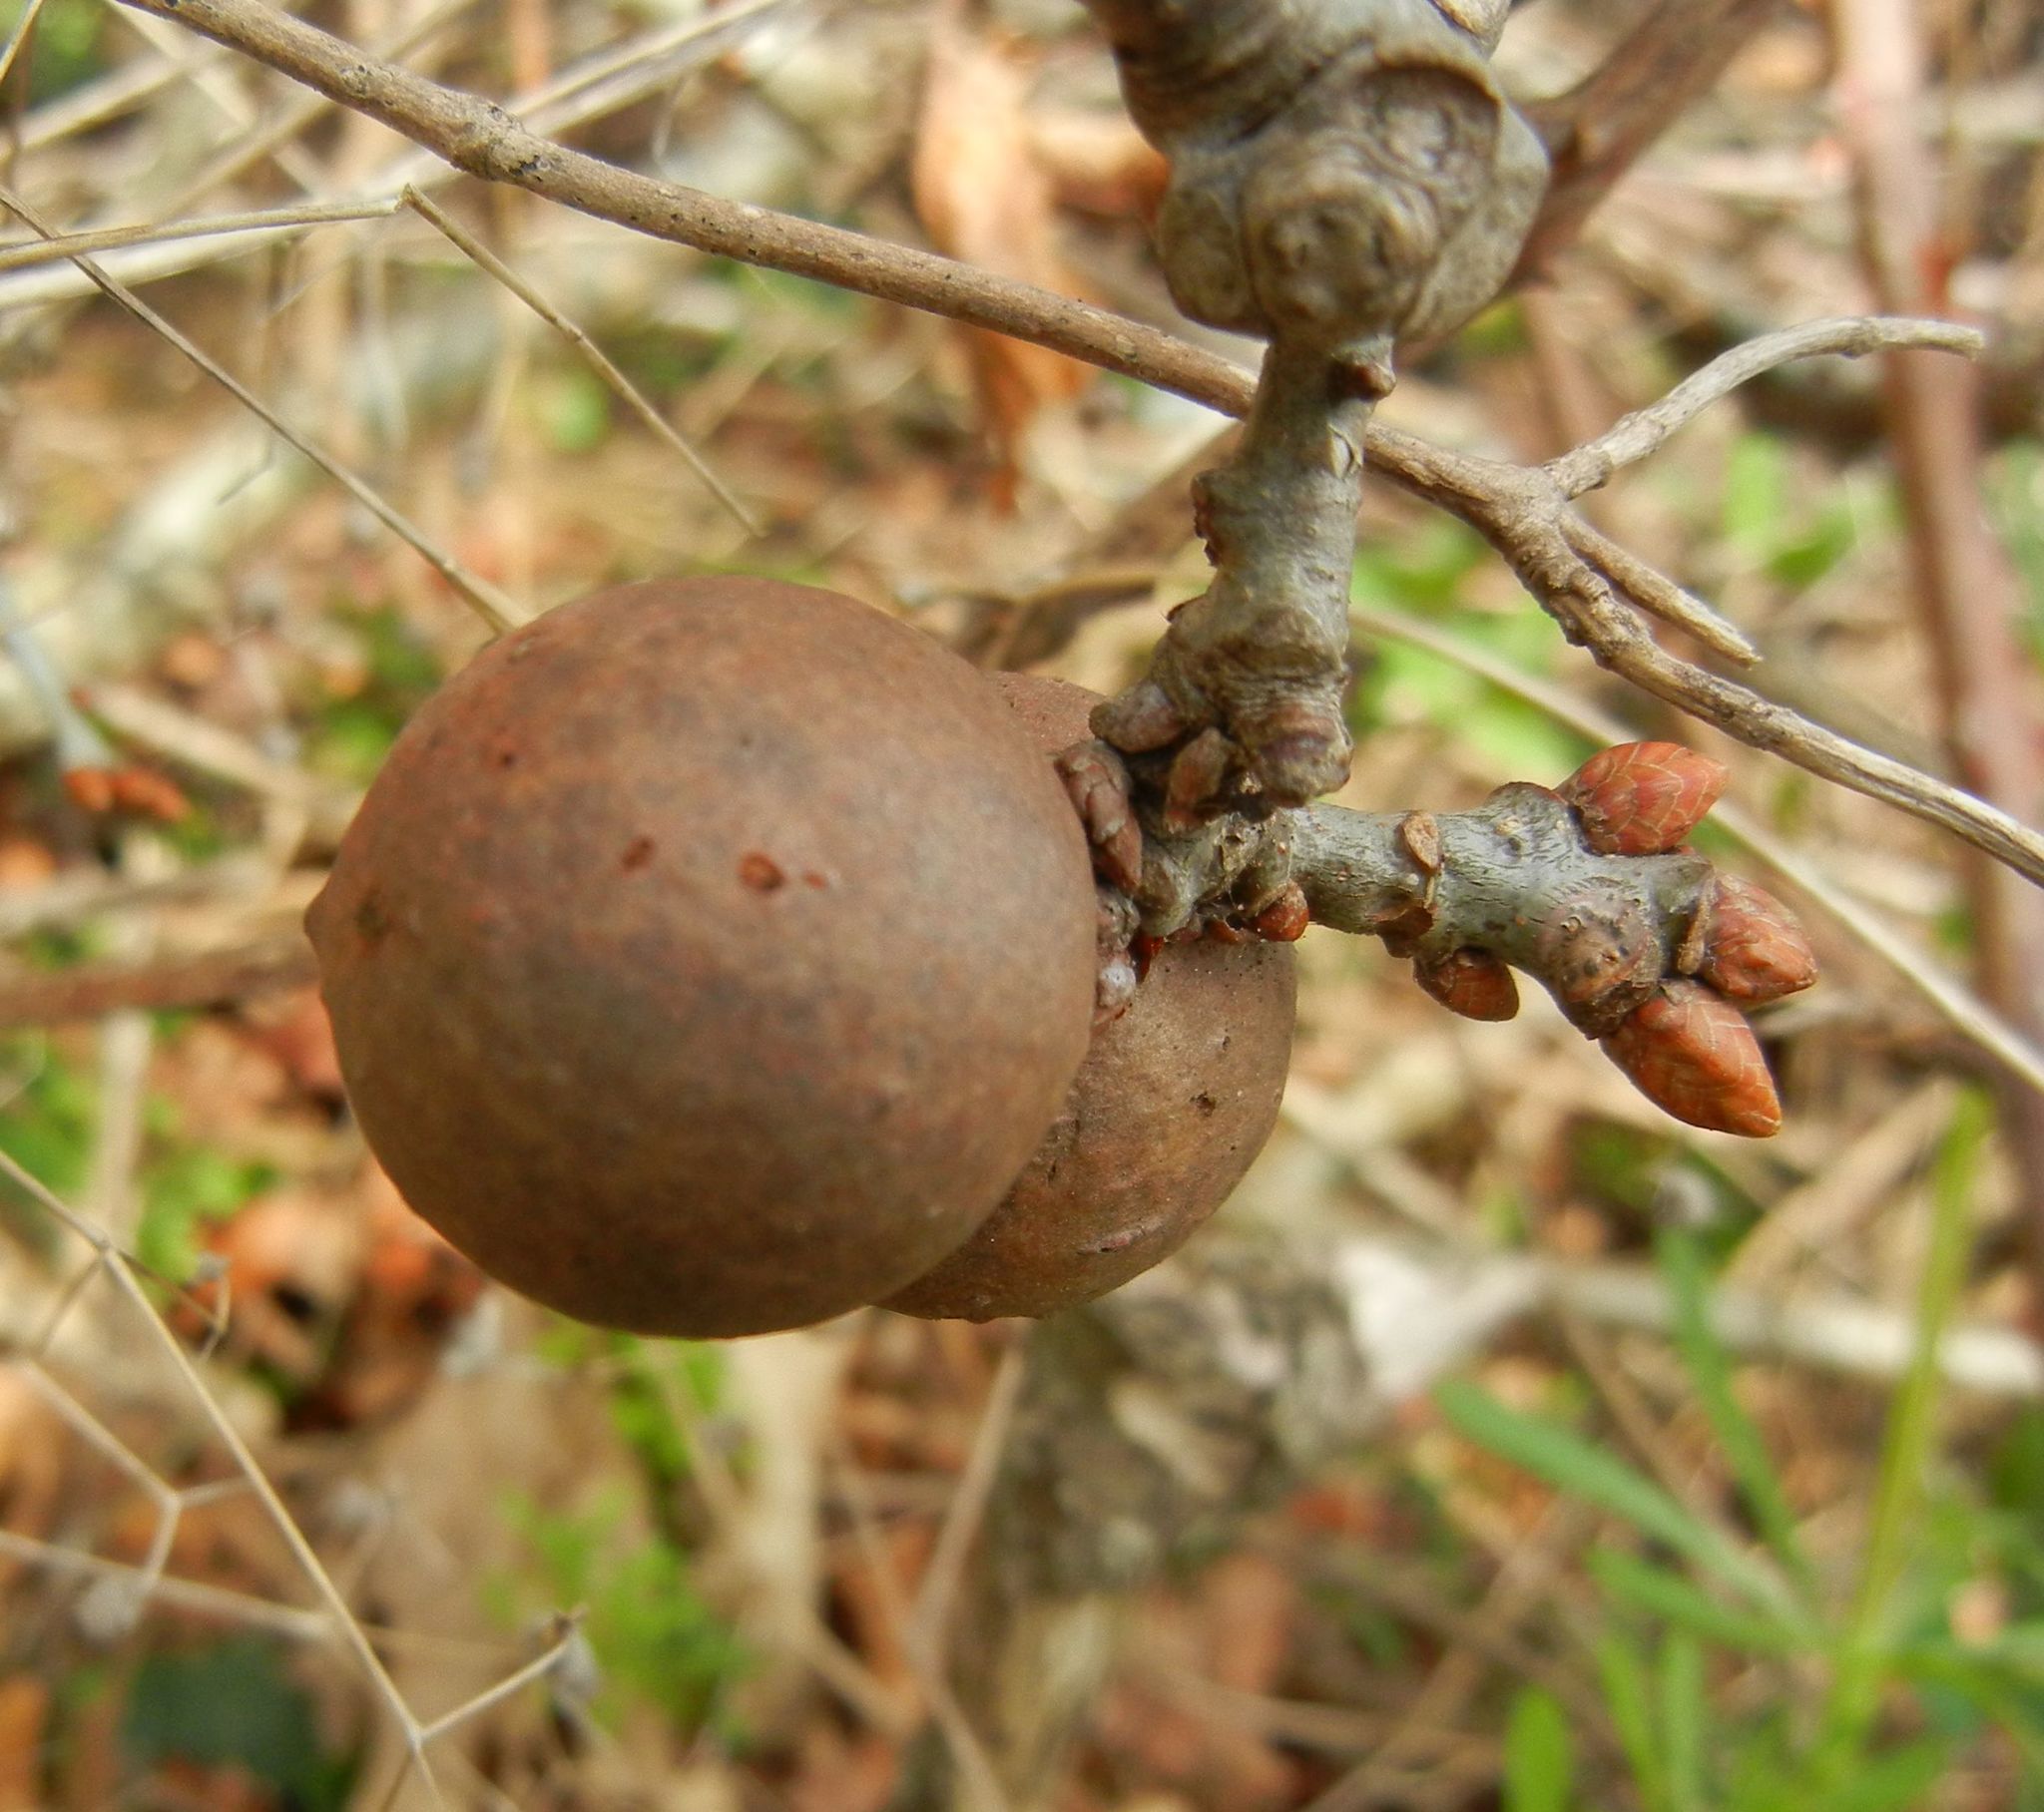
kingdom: Animalia
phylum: Arthropoda
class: Insecta
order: Hymenoptera
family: Cynipidae
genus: Andricus
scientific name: Andricus kollari
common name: Marble gall
